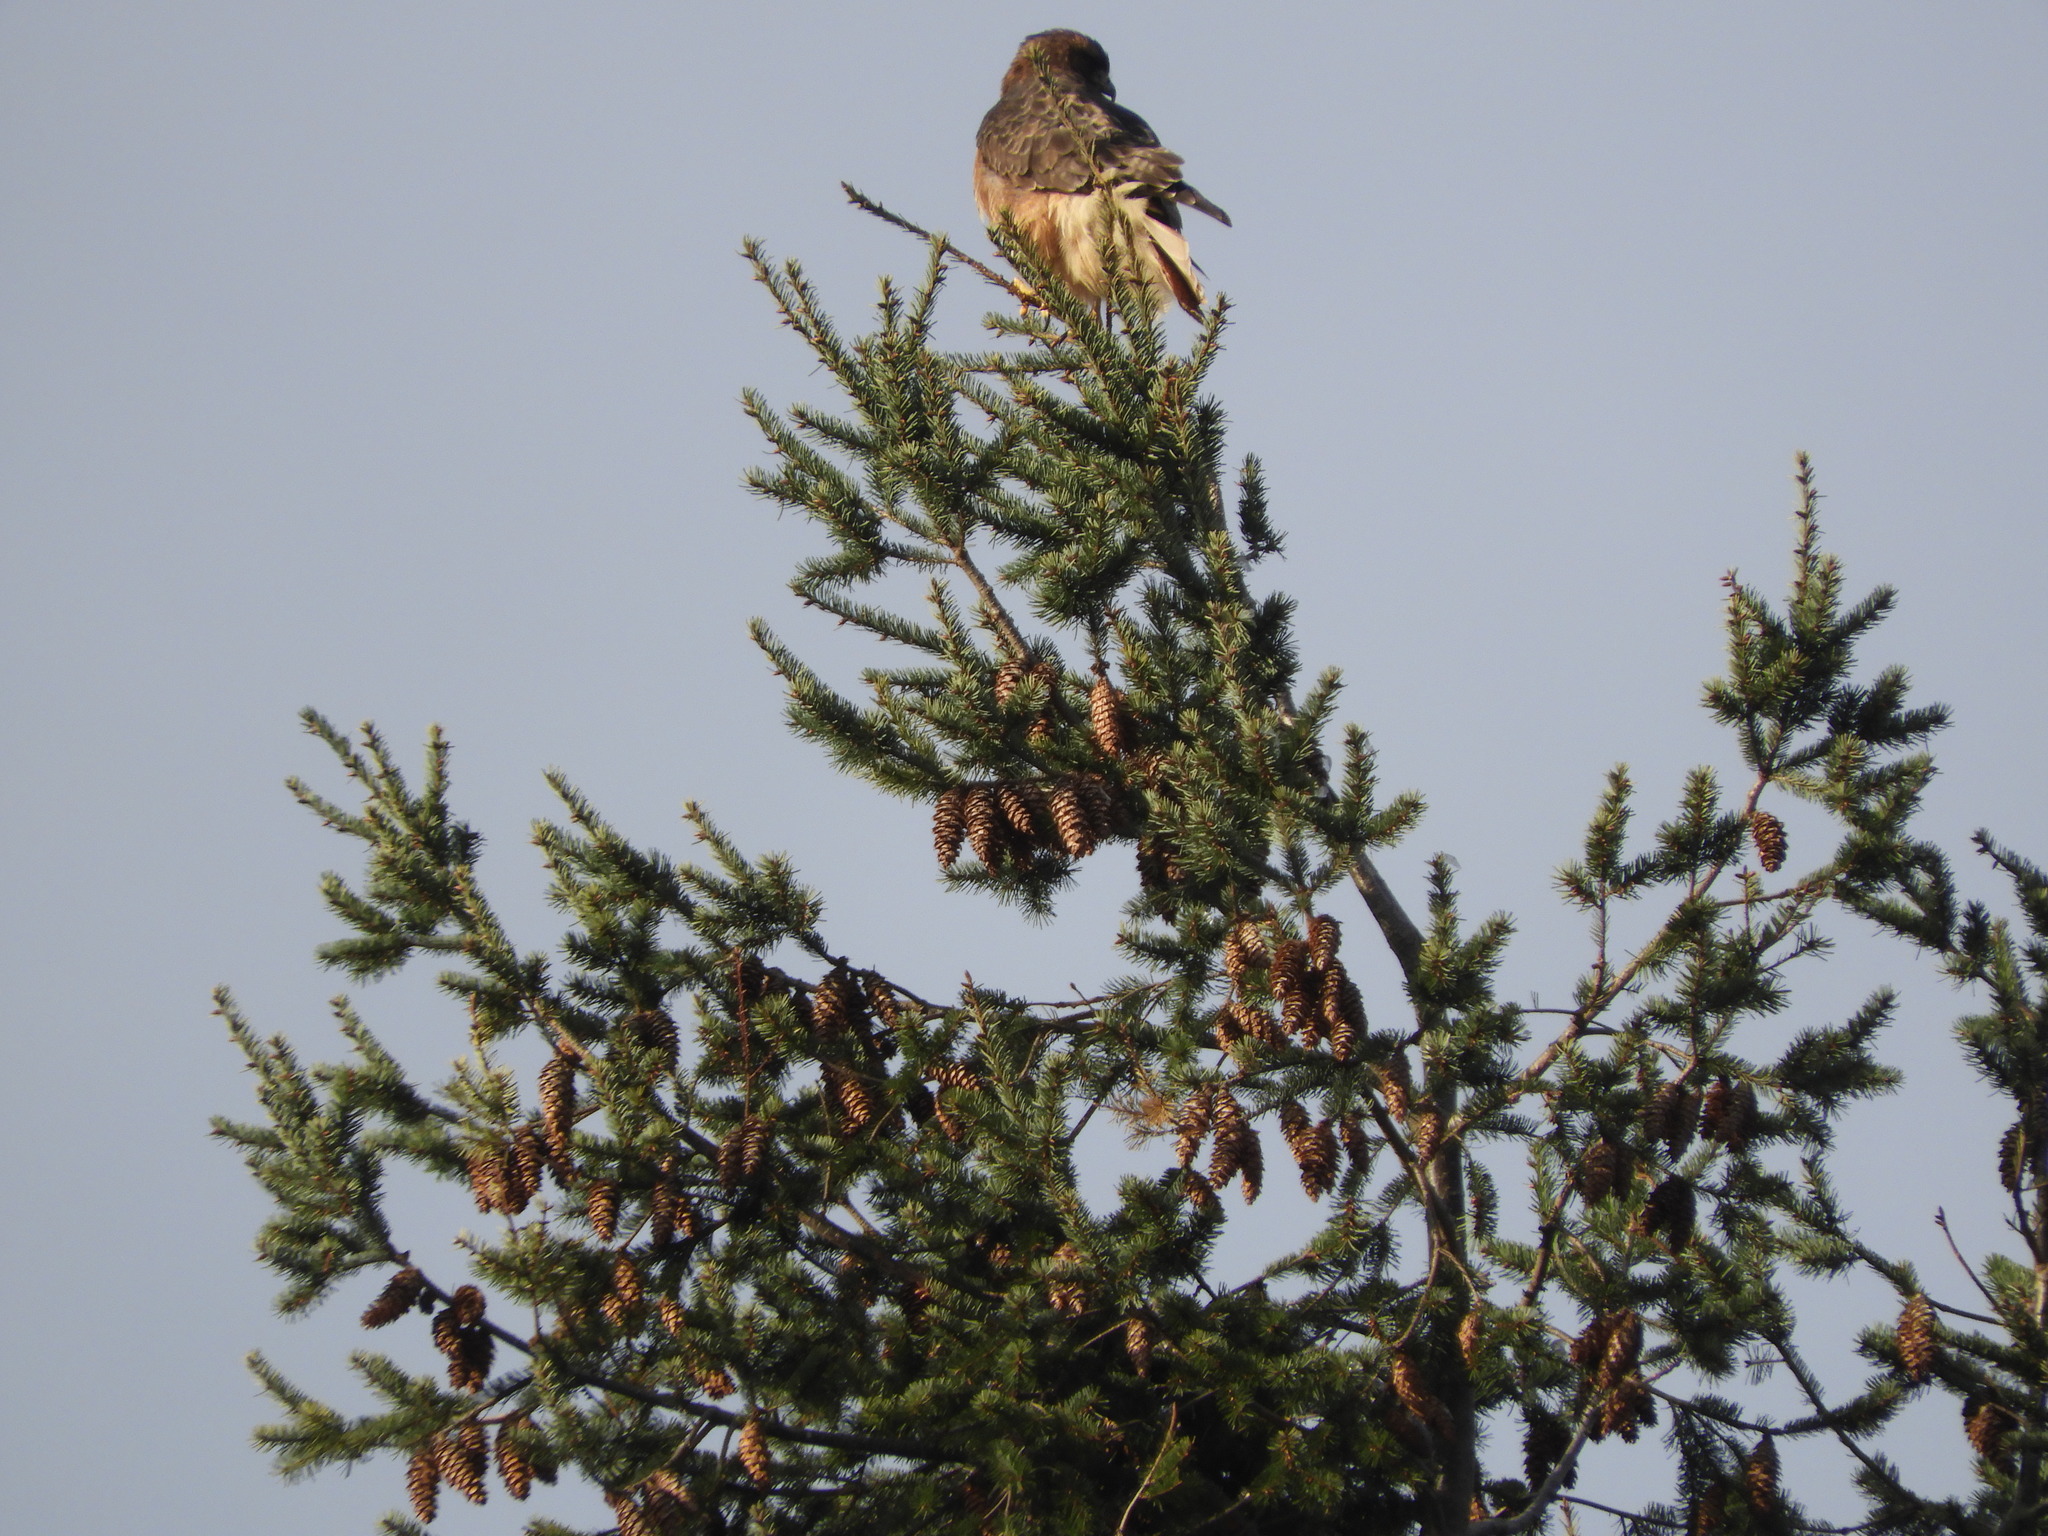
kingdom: Animalia
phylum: Chordata
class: Aves
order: Accipitriformes
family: Accipitridae
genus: Buteo
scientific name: Buteo jamaicensis
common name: Red-tailed hawk
